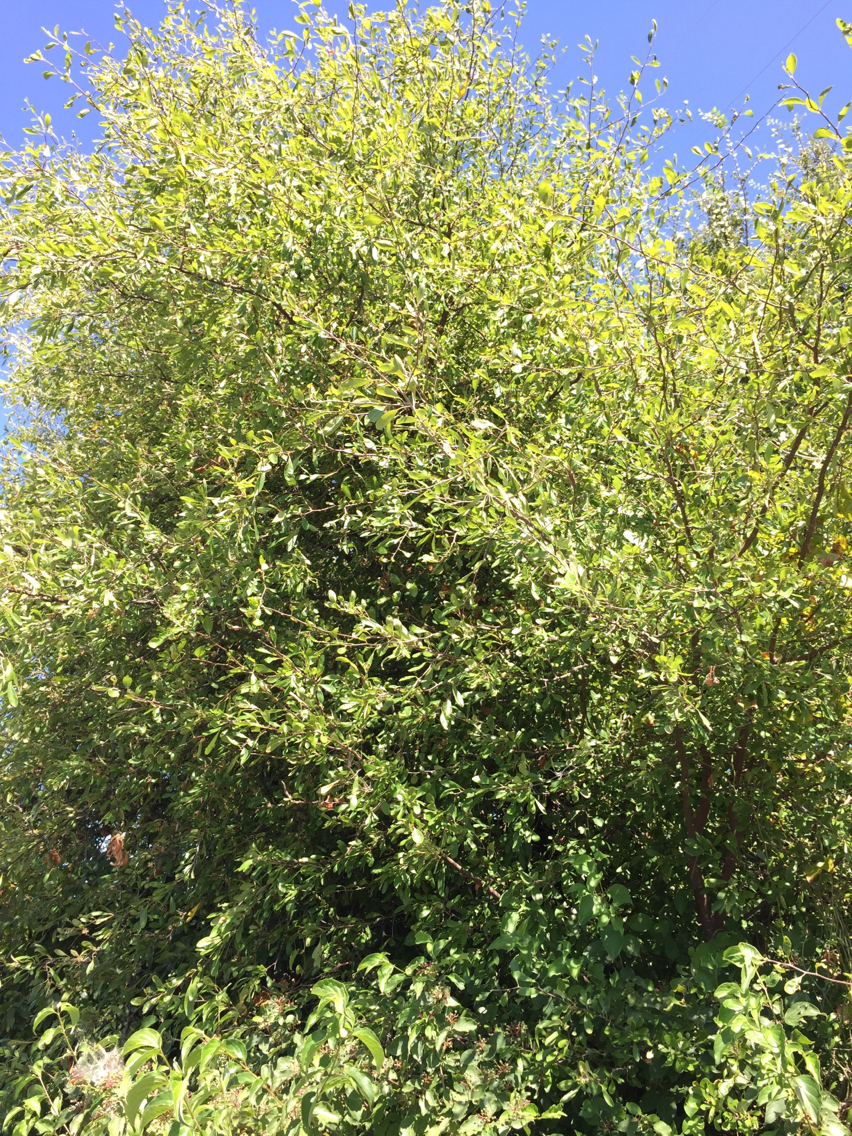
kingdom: Plantae
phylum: Tracheophyta
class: Magnoliopsida
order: Ericales
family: Sapotaceae
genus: Sideroxylon
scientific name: Sideroxylon lanuginosum
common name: Chittamwood
